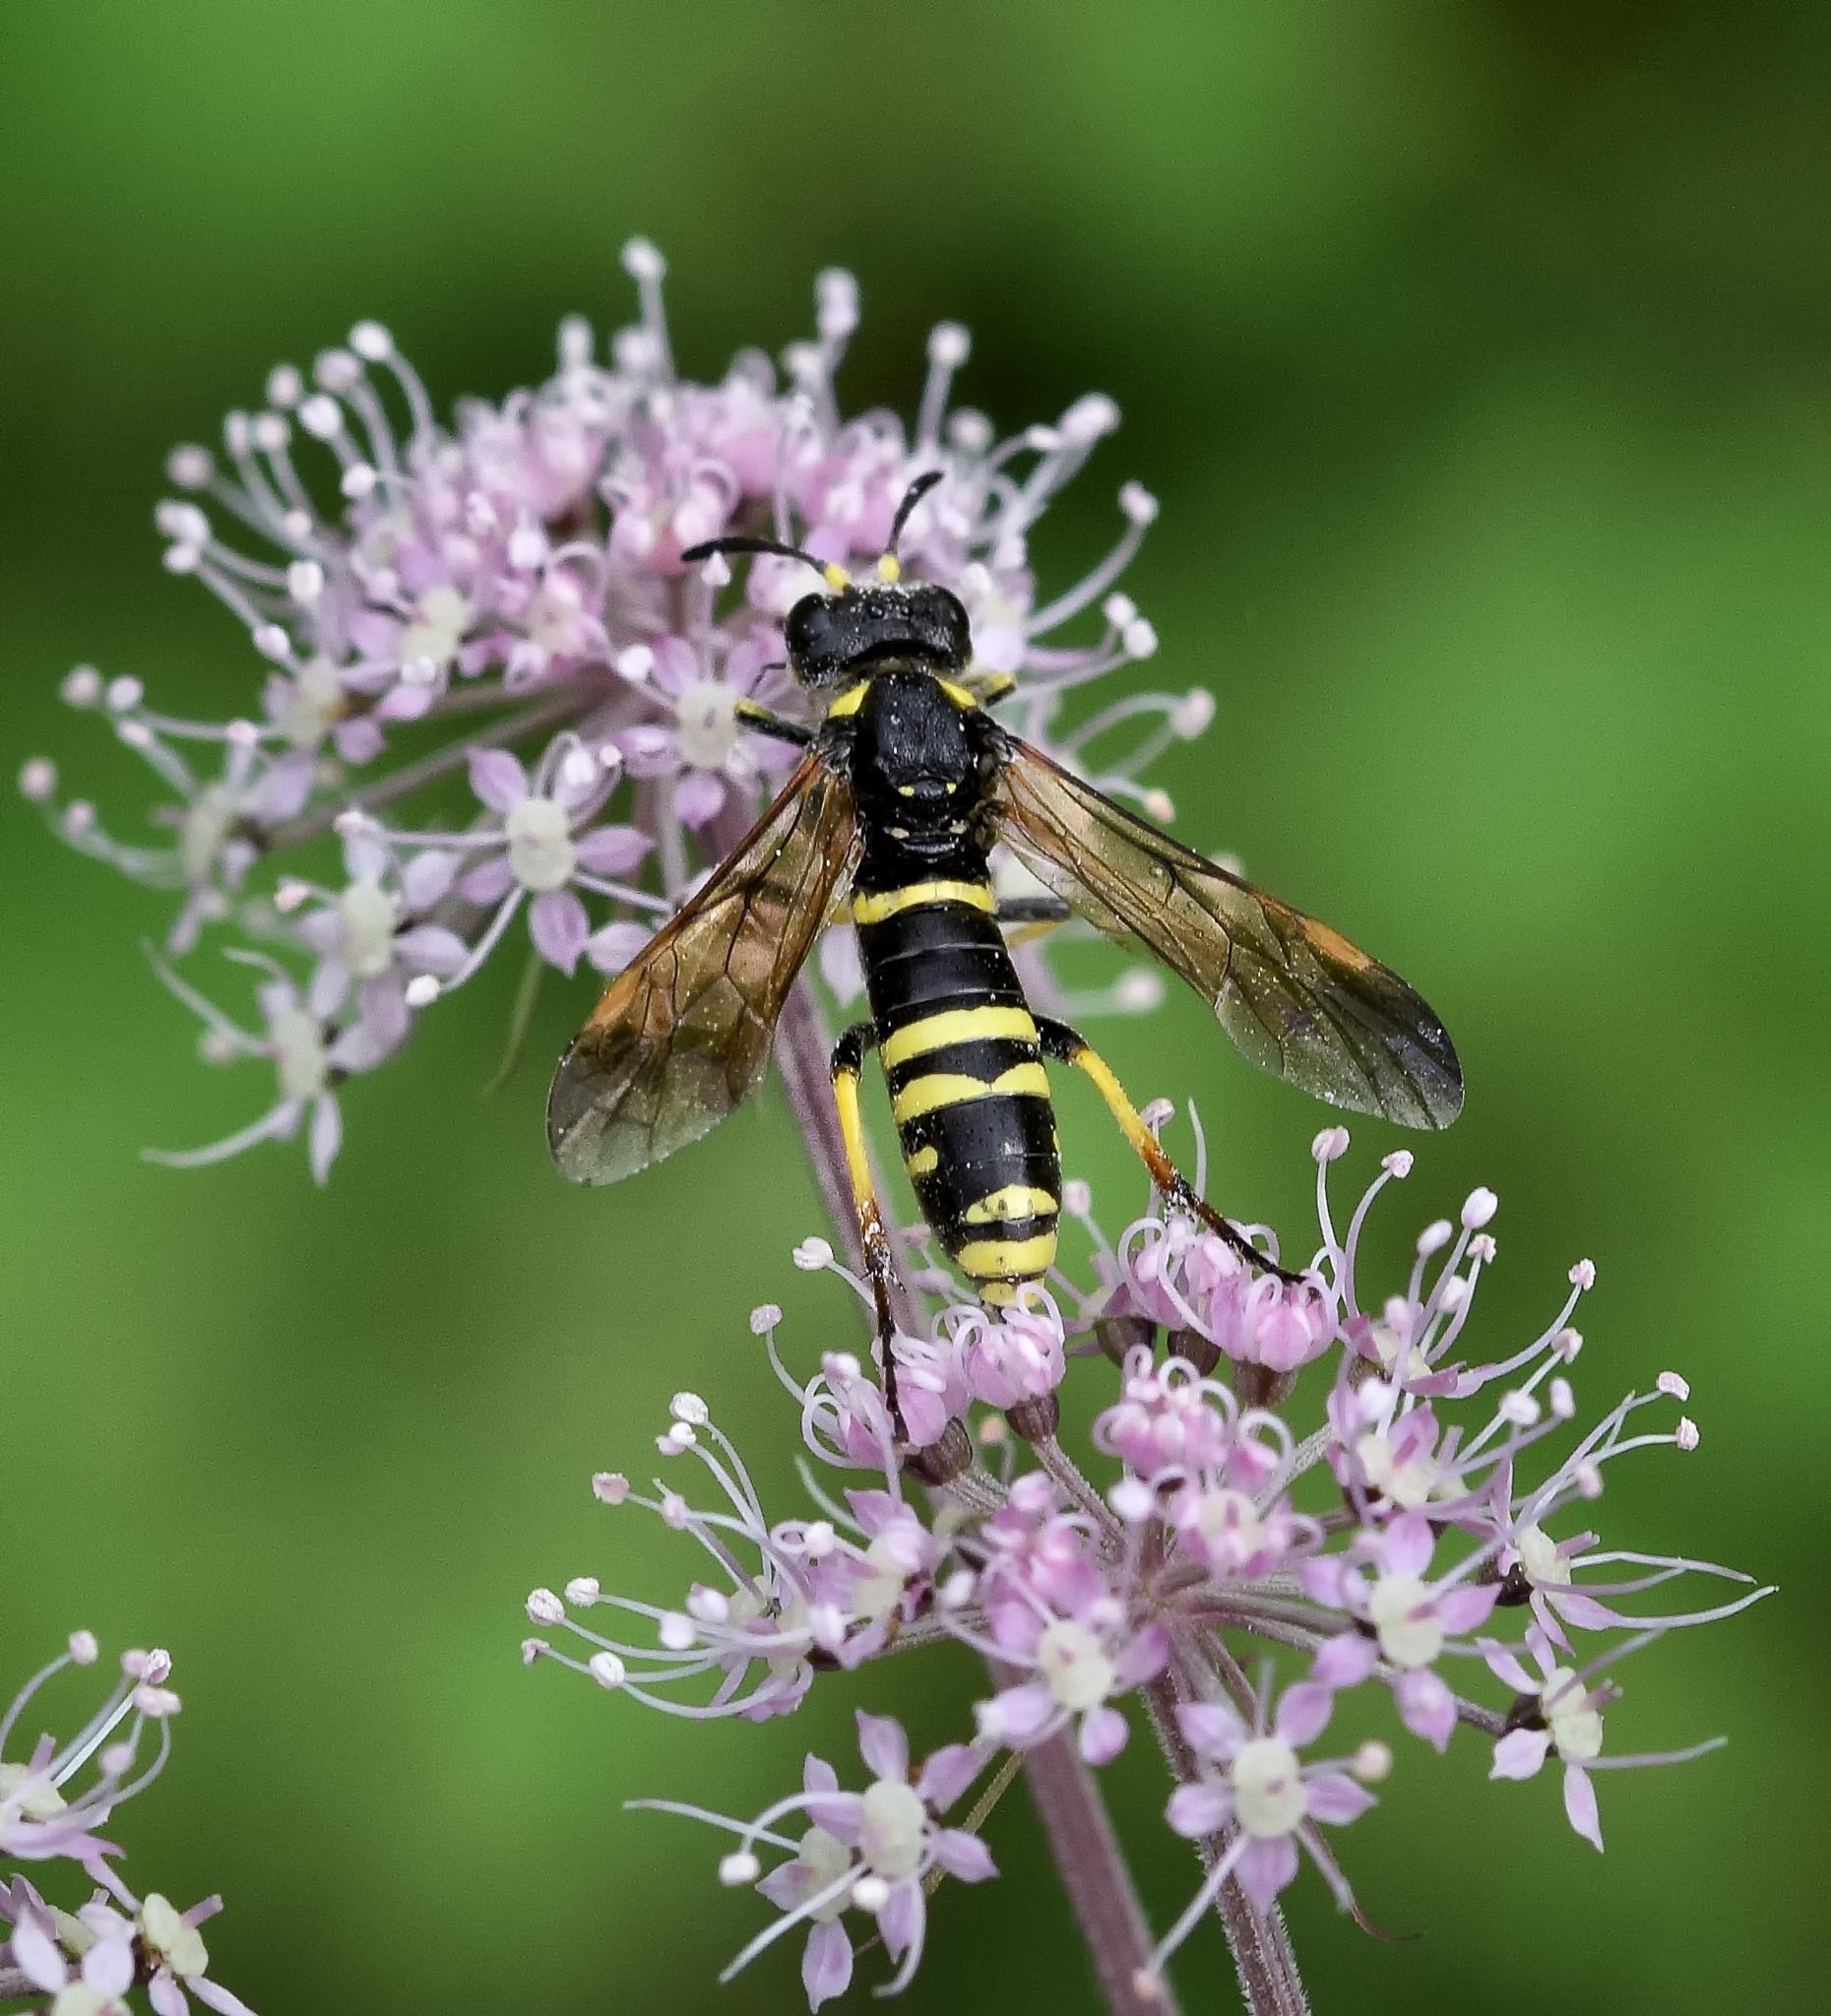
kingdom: Animalia
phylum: Arthropoda
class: Insecta
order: Hymenoptera
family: Tenthredinidae
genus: Tenthredo
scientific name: Tenthredo thompsoni
